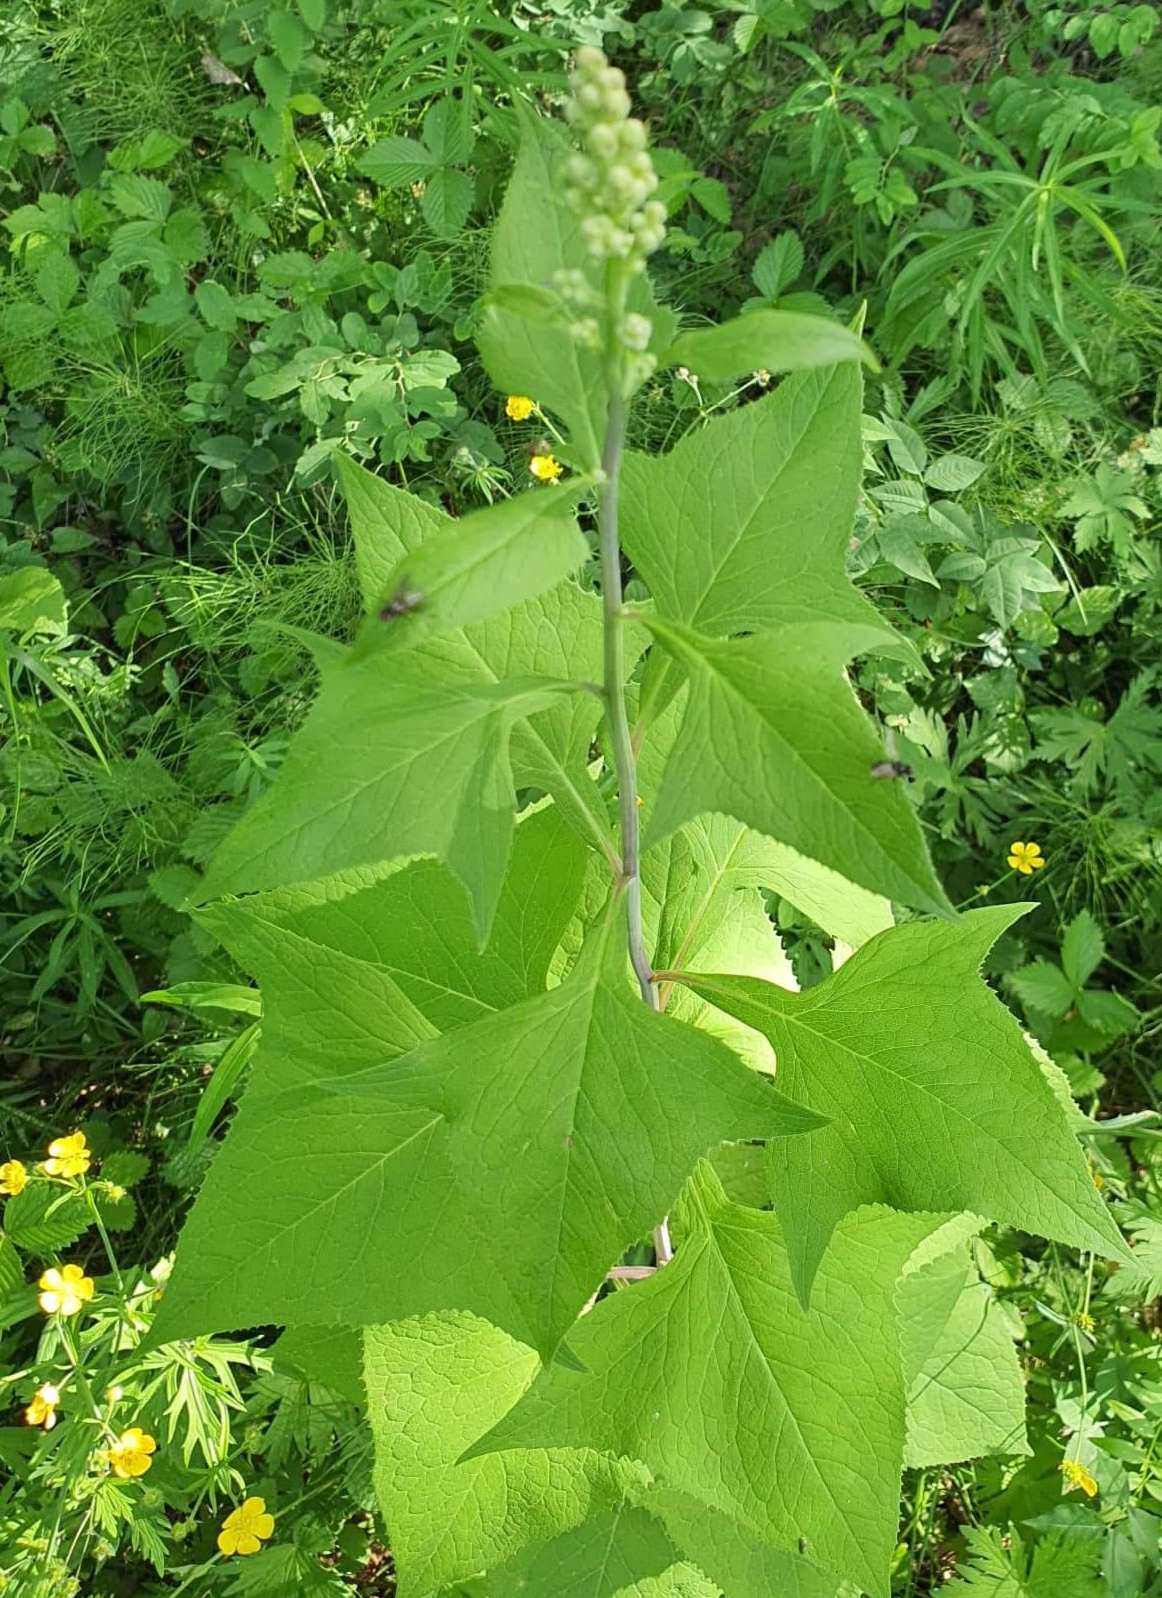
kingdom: Plantae
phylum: Tracheophyta
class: Magnoliopsida
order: Asterales
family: Asteraceae
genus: Parasenecio
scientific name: Parasenecio hastatus
